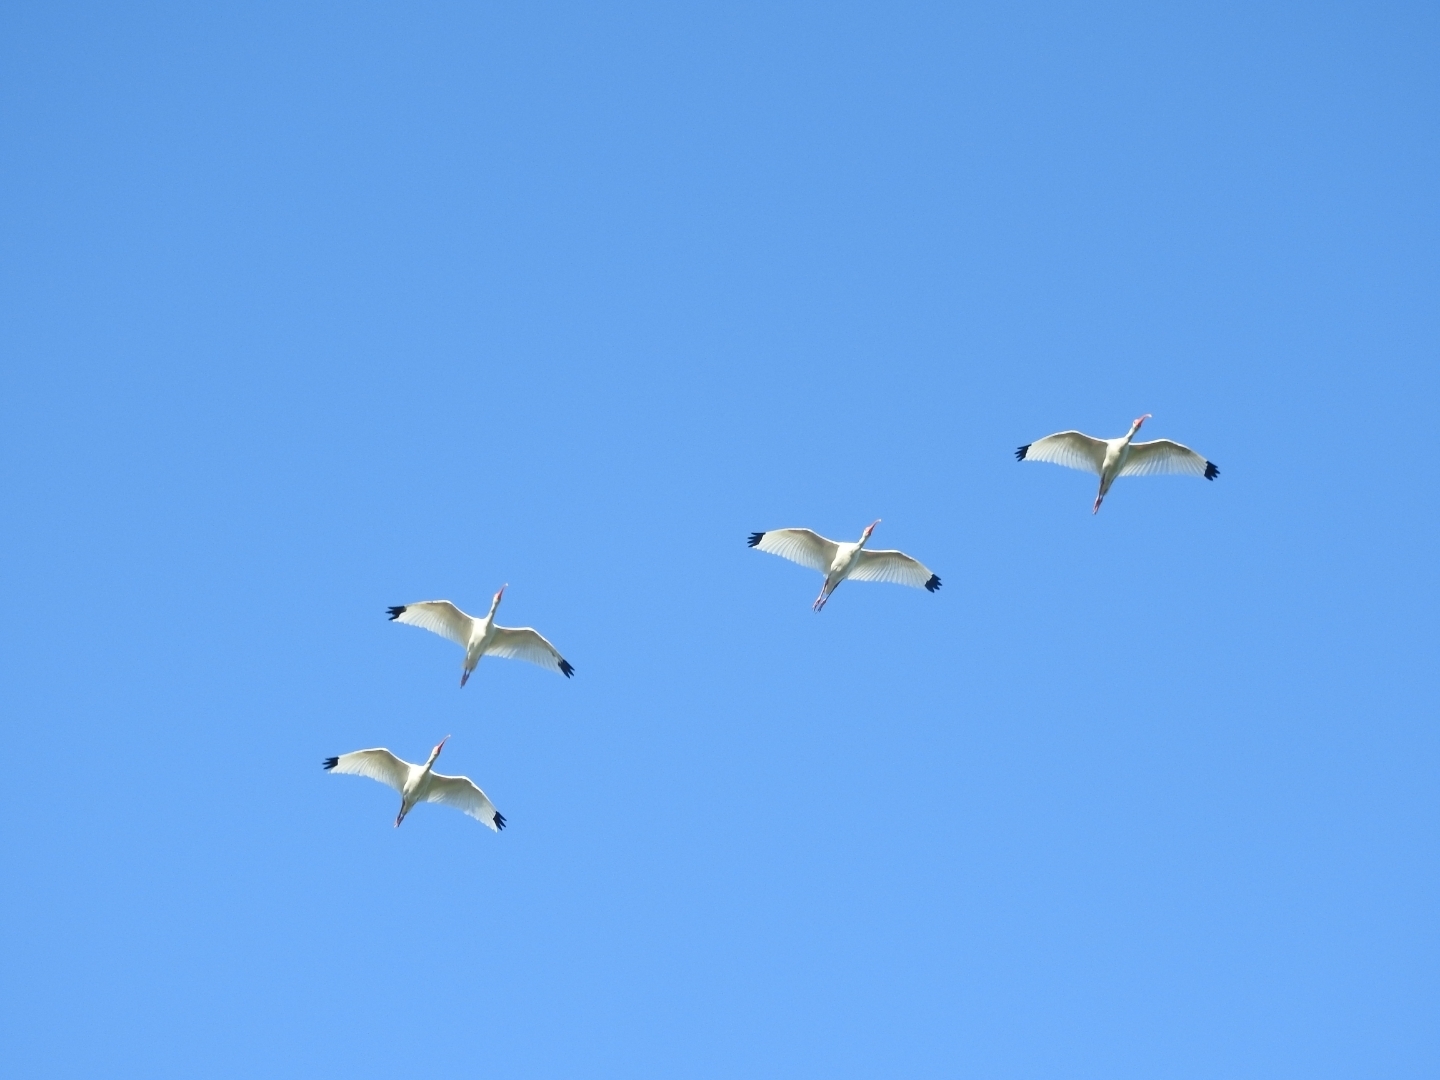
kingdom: Animalia
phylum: Chordata
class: Aves
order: Pelecaniformes
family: Threskiornithidae
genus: Eudocimus
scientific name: Eudocimus albus
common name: White ibis
